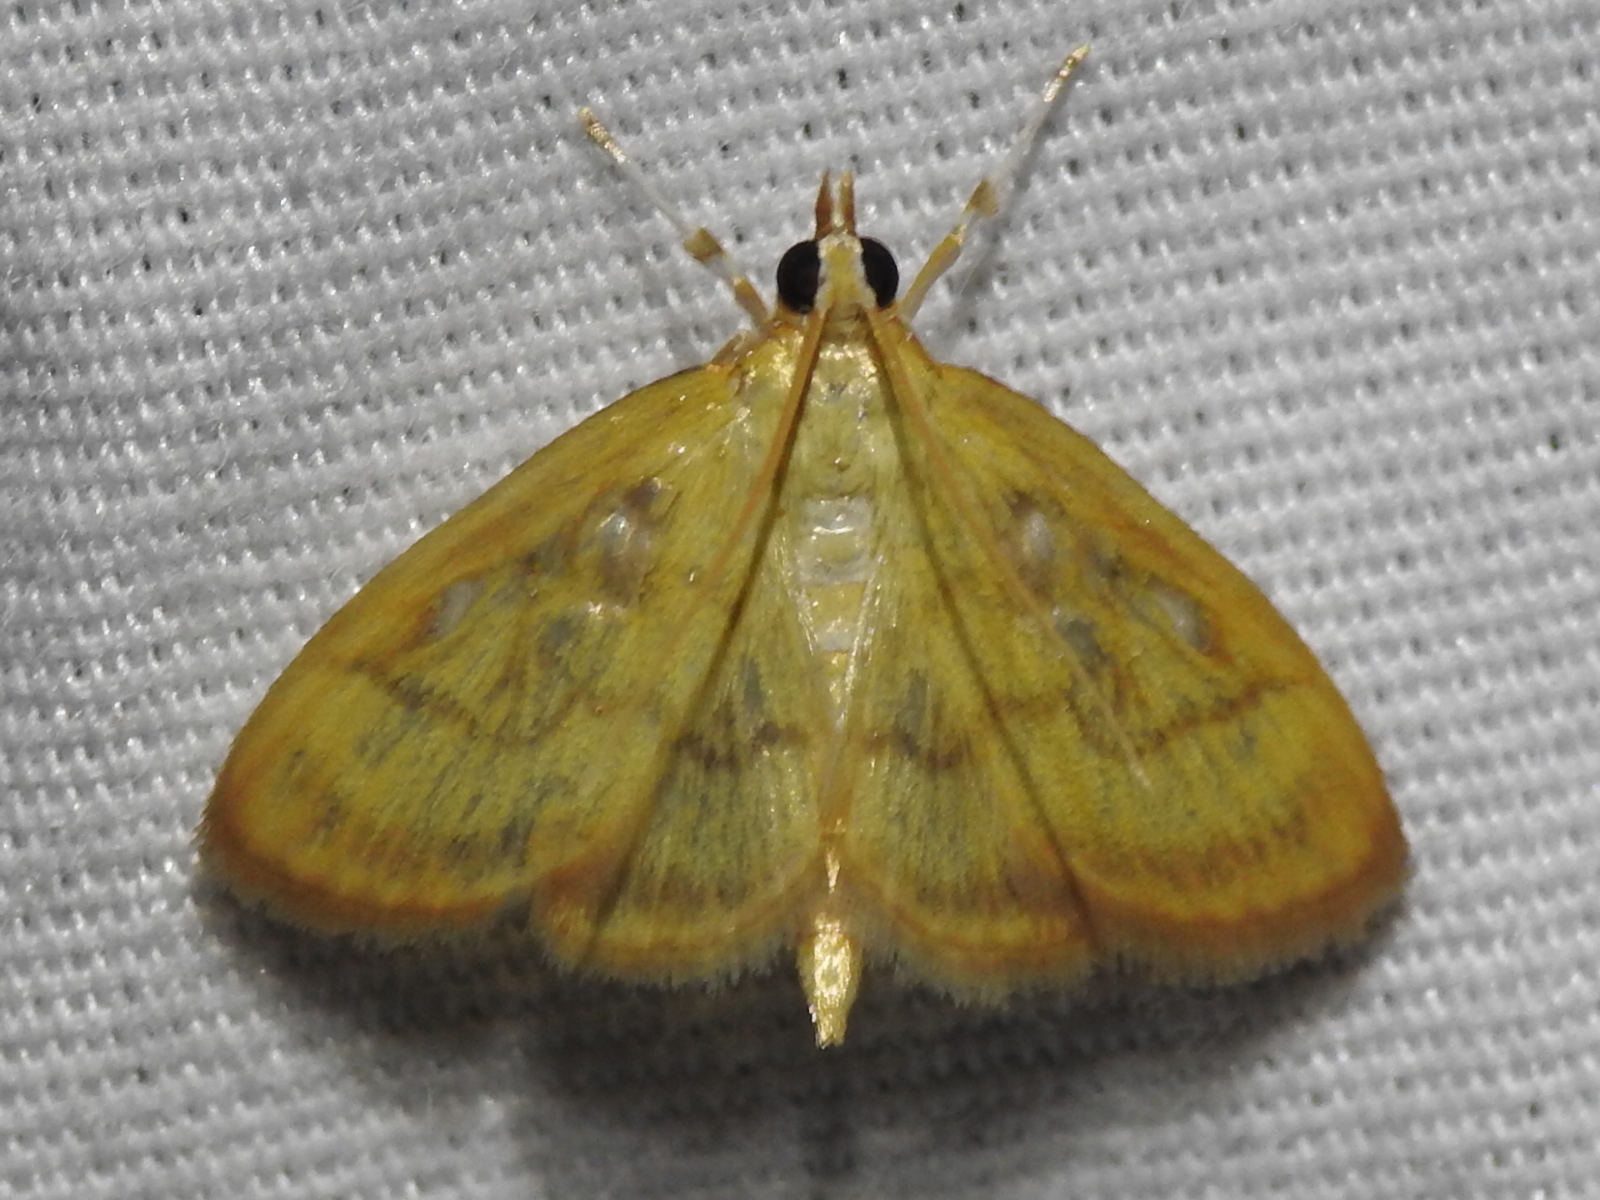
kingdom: Animalia
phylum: Arthropoda
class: Insecta
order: Lepidoptera
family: Crambidae
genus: Crocidophora
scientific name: Crocidophora tuberculalis
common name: Pale-winged crocidiphora moth
